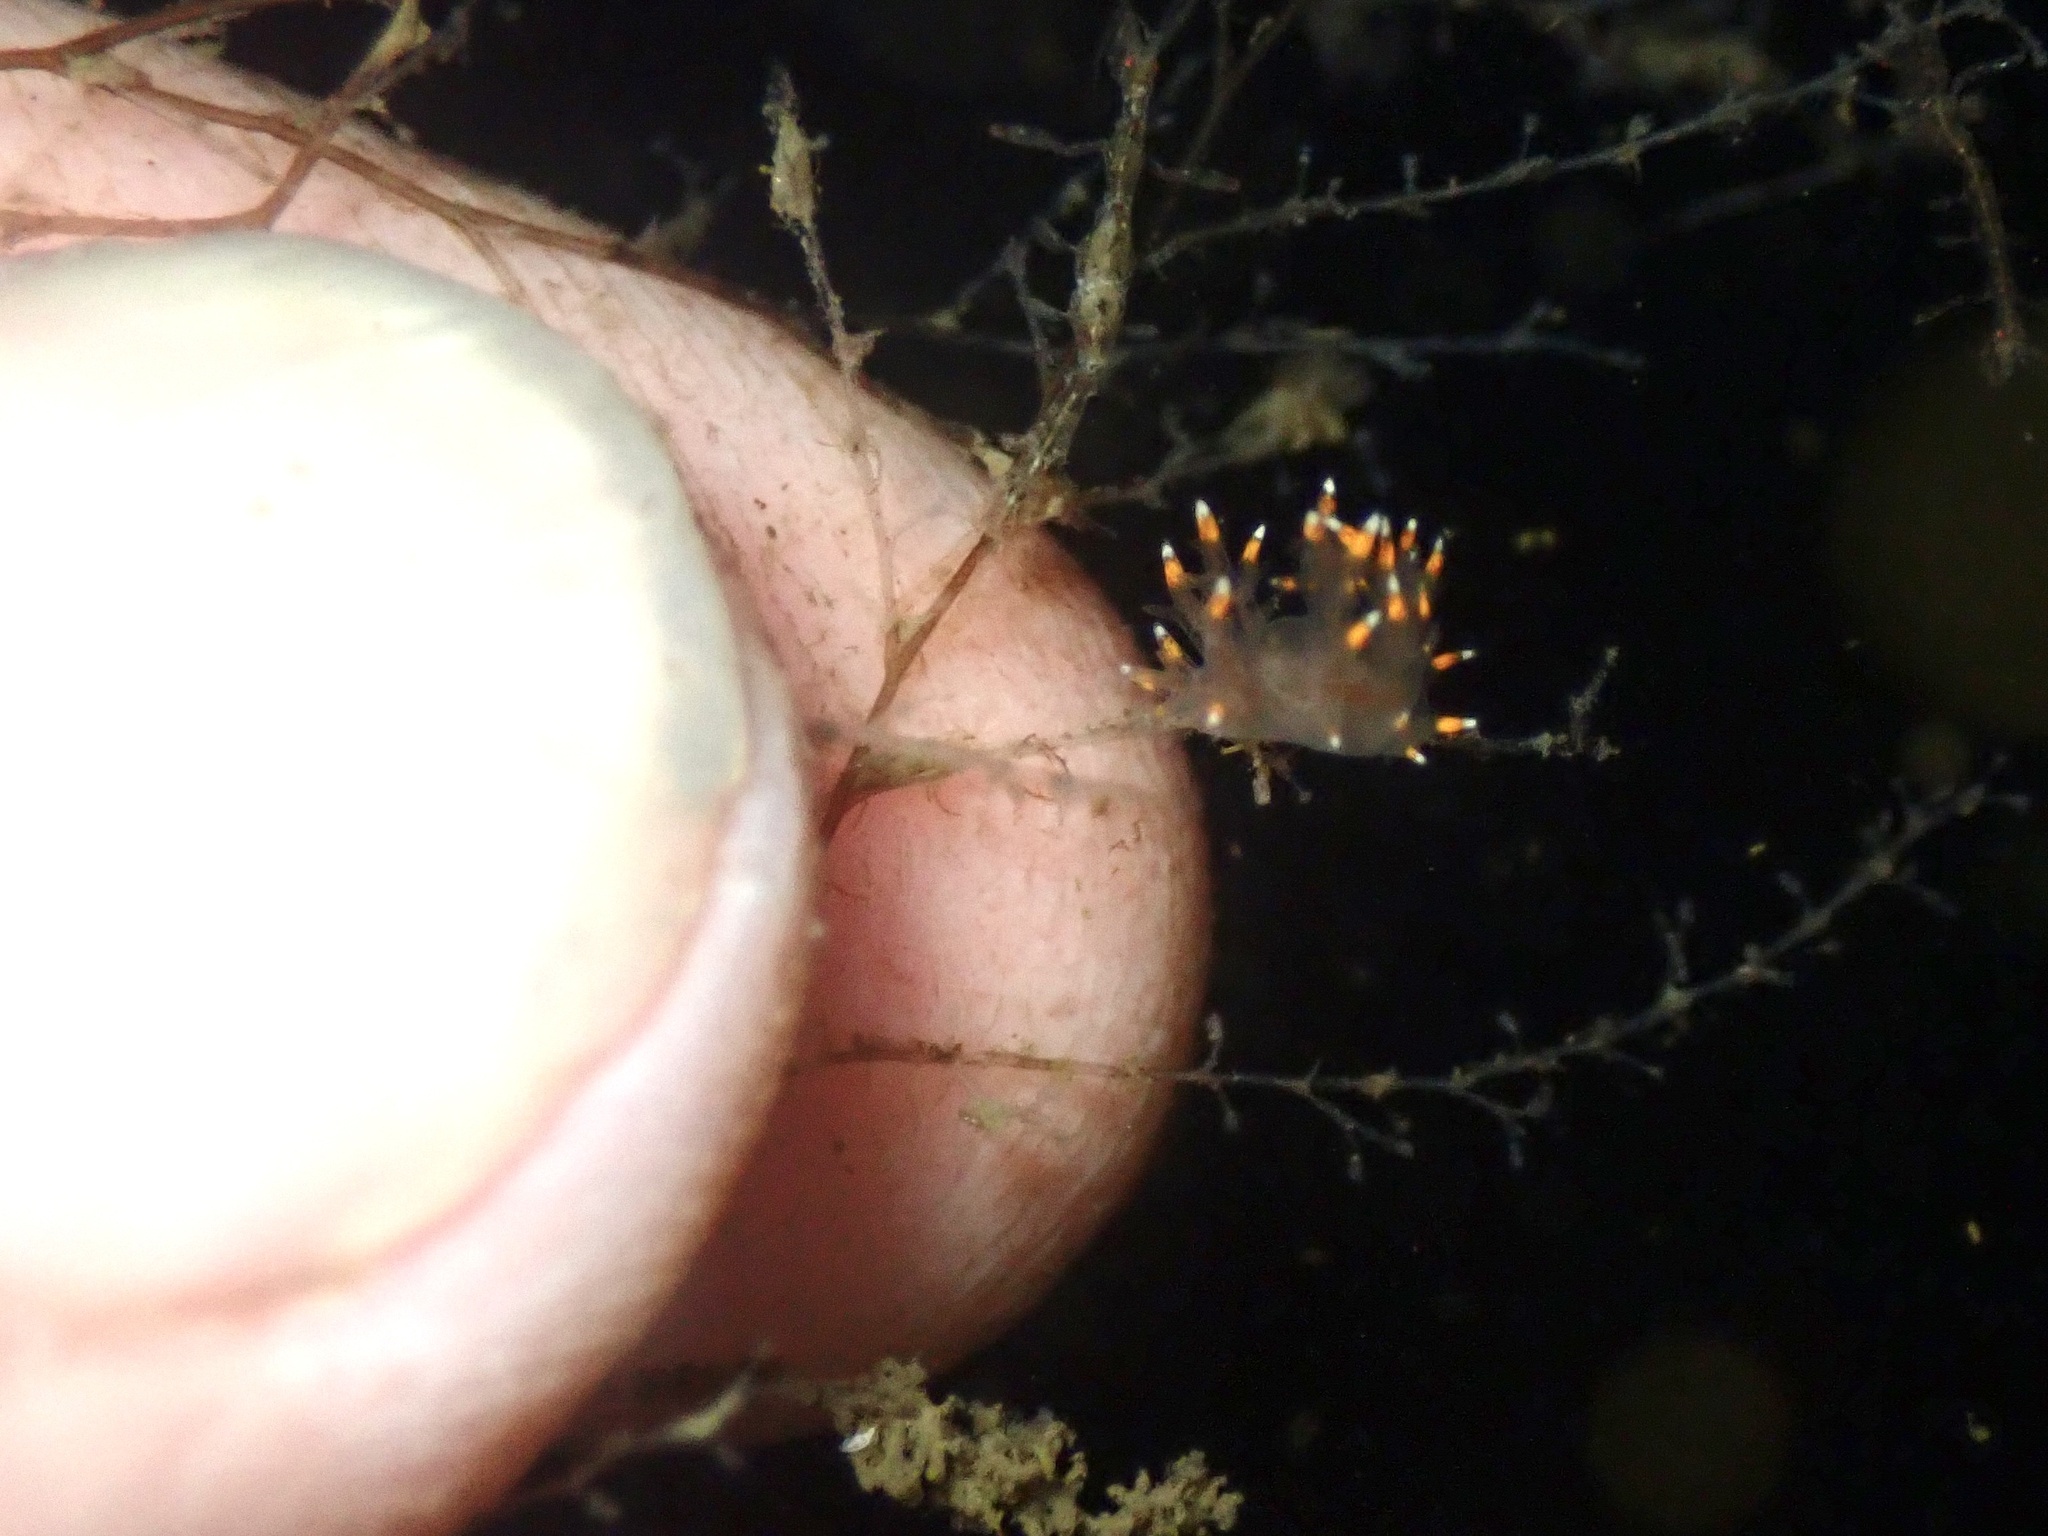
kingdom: Animalia
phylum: Mollusca
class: Gastropoda
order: Nudibranchia
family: Dendronotidae
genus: Dendronotus
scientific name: Dendronotus iris
